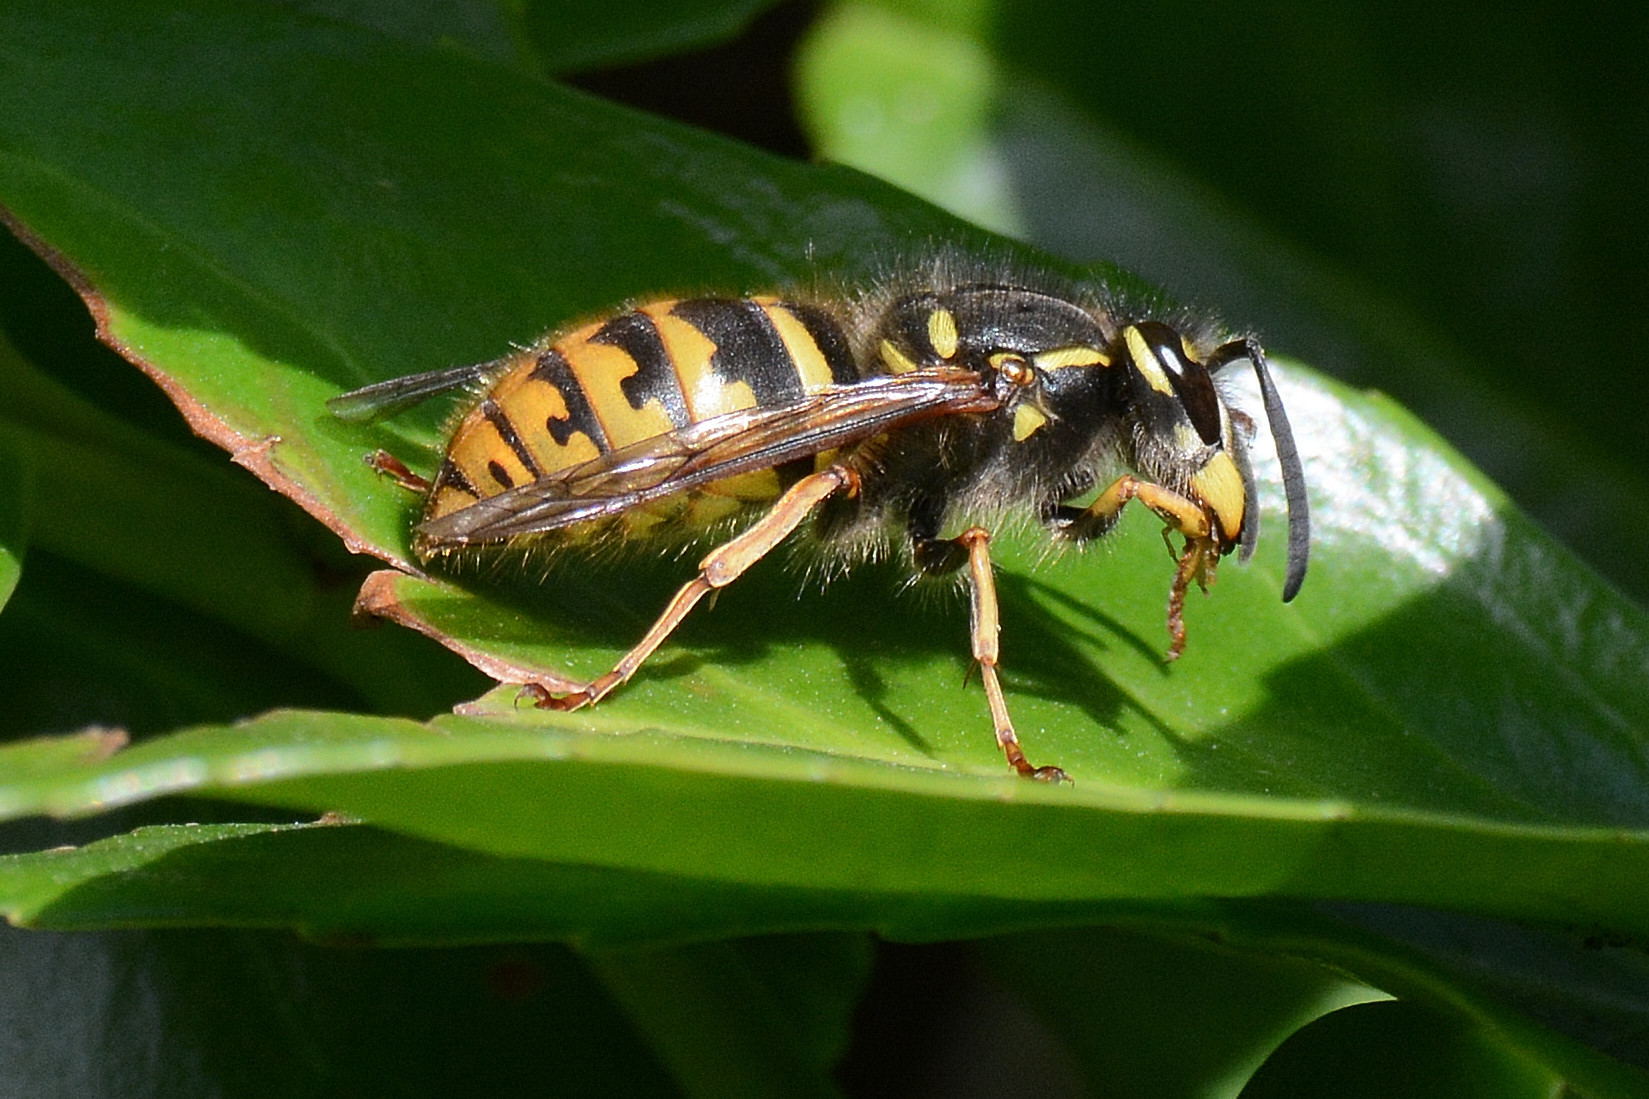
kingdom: Animalia
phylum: Arthropoda
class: Insecta
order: Hymenoptera
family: Vespidae
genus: Vespula
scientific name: Vespula vulgaris
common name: Common wasp
